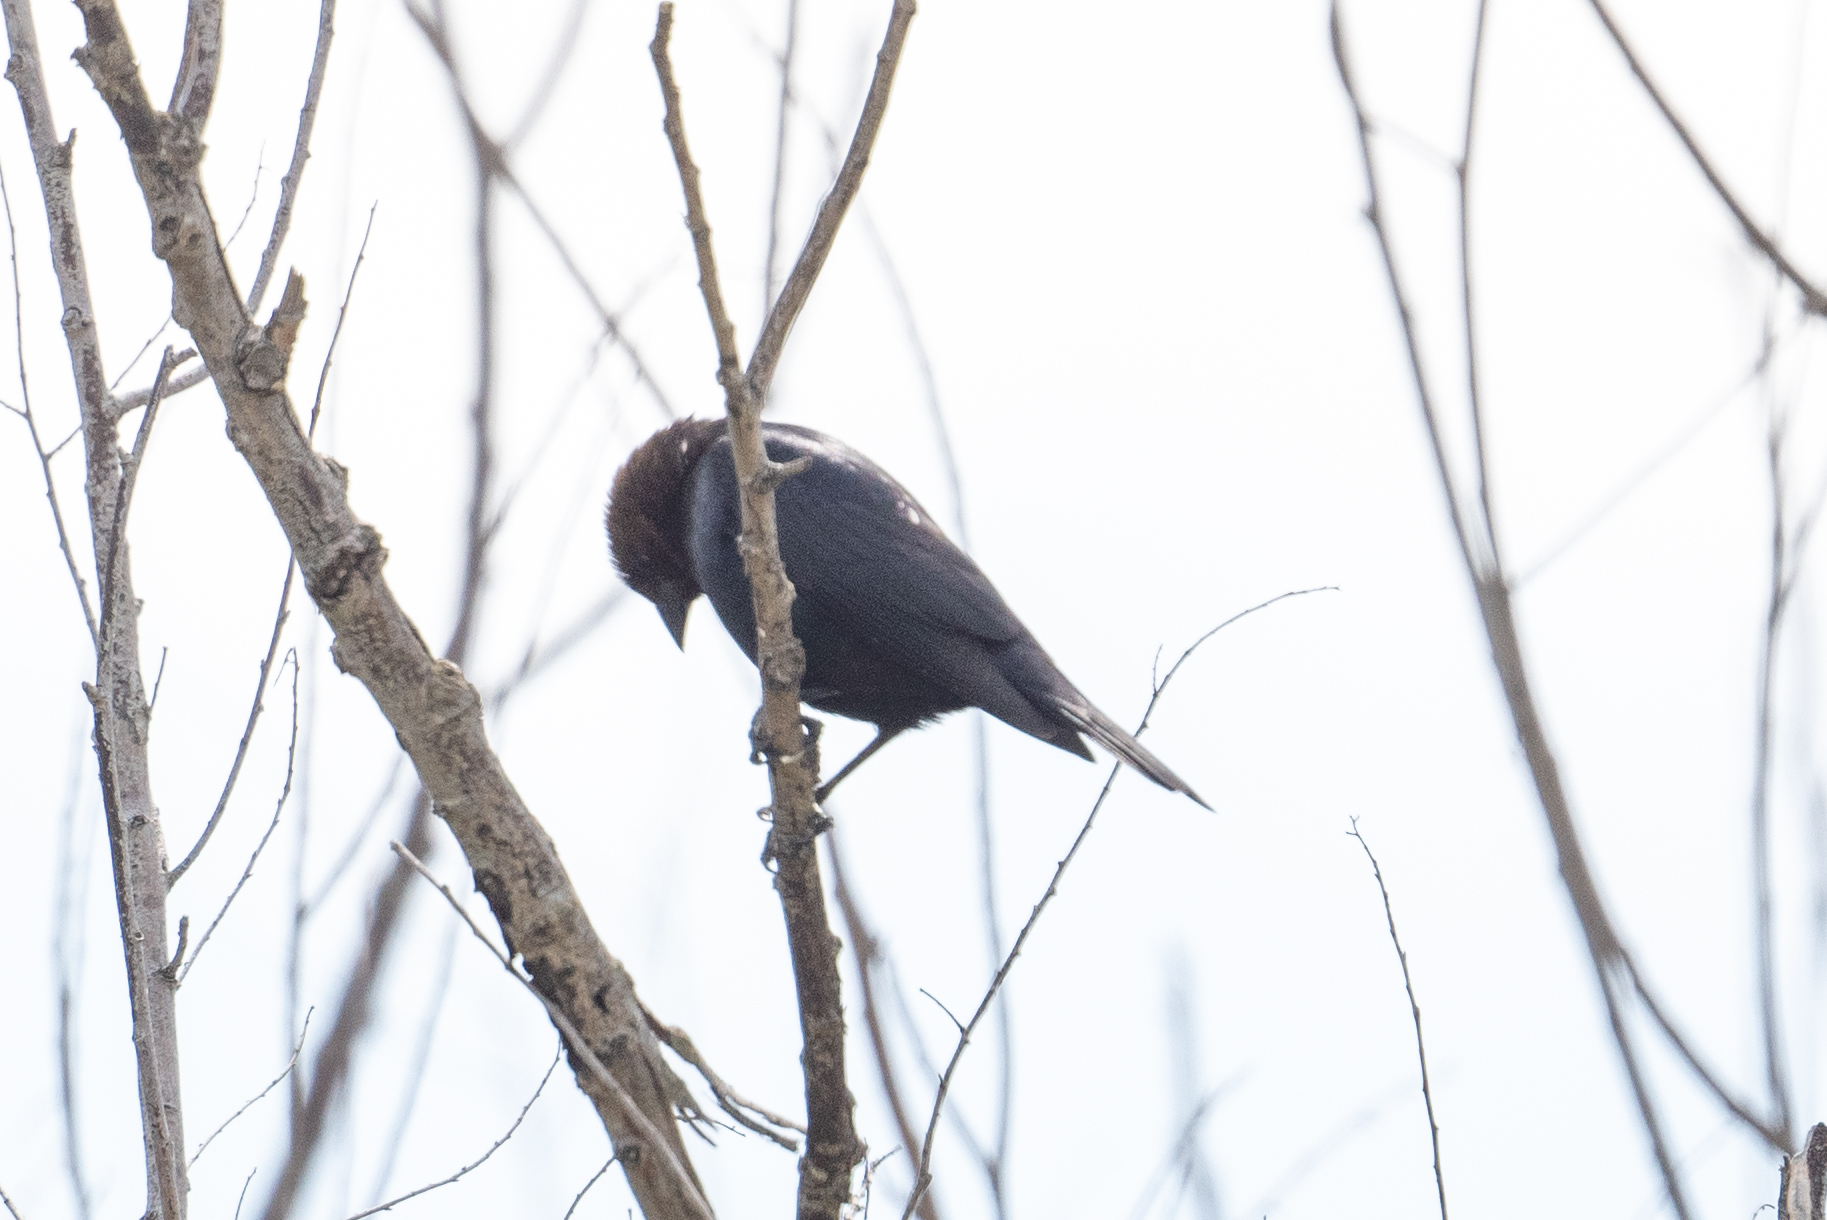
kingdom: Animalia
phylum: Chordata
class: Aves
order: Passeriformes
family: Icteridae
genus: Molothrus
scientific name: Molothrus ater
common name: Brown-headed cowbird
